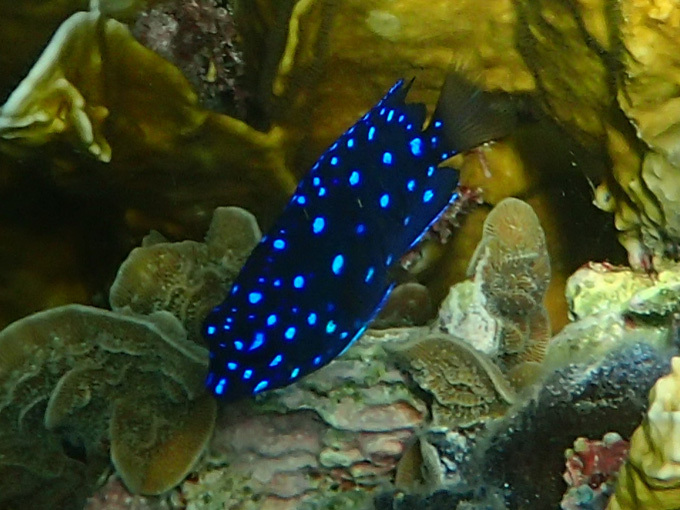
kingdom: Animalia
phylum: Chordata
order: Perciformes
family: Pomacentridae
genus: Microspathodon
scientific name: Microspathodon chrysurus
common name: Yellowtail damselfish
